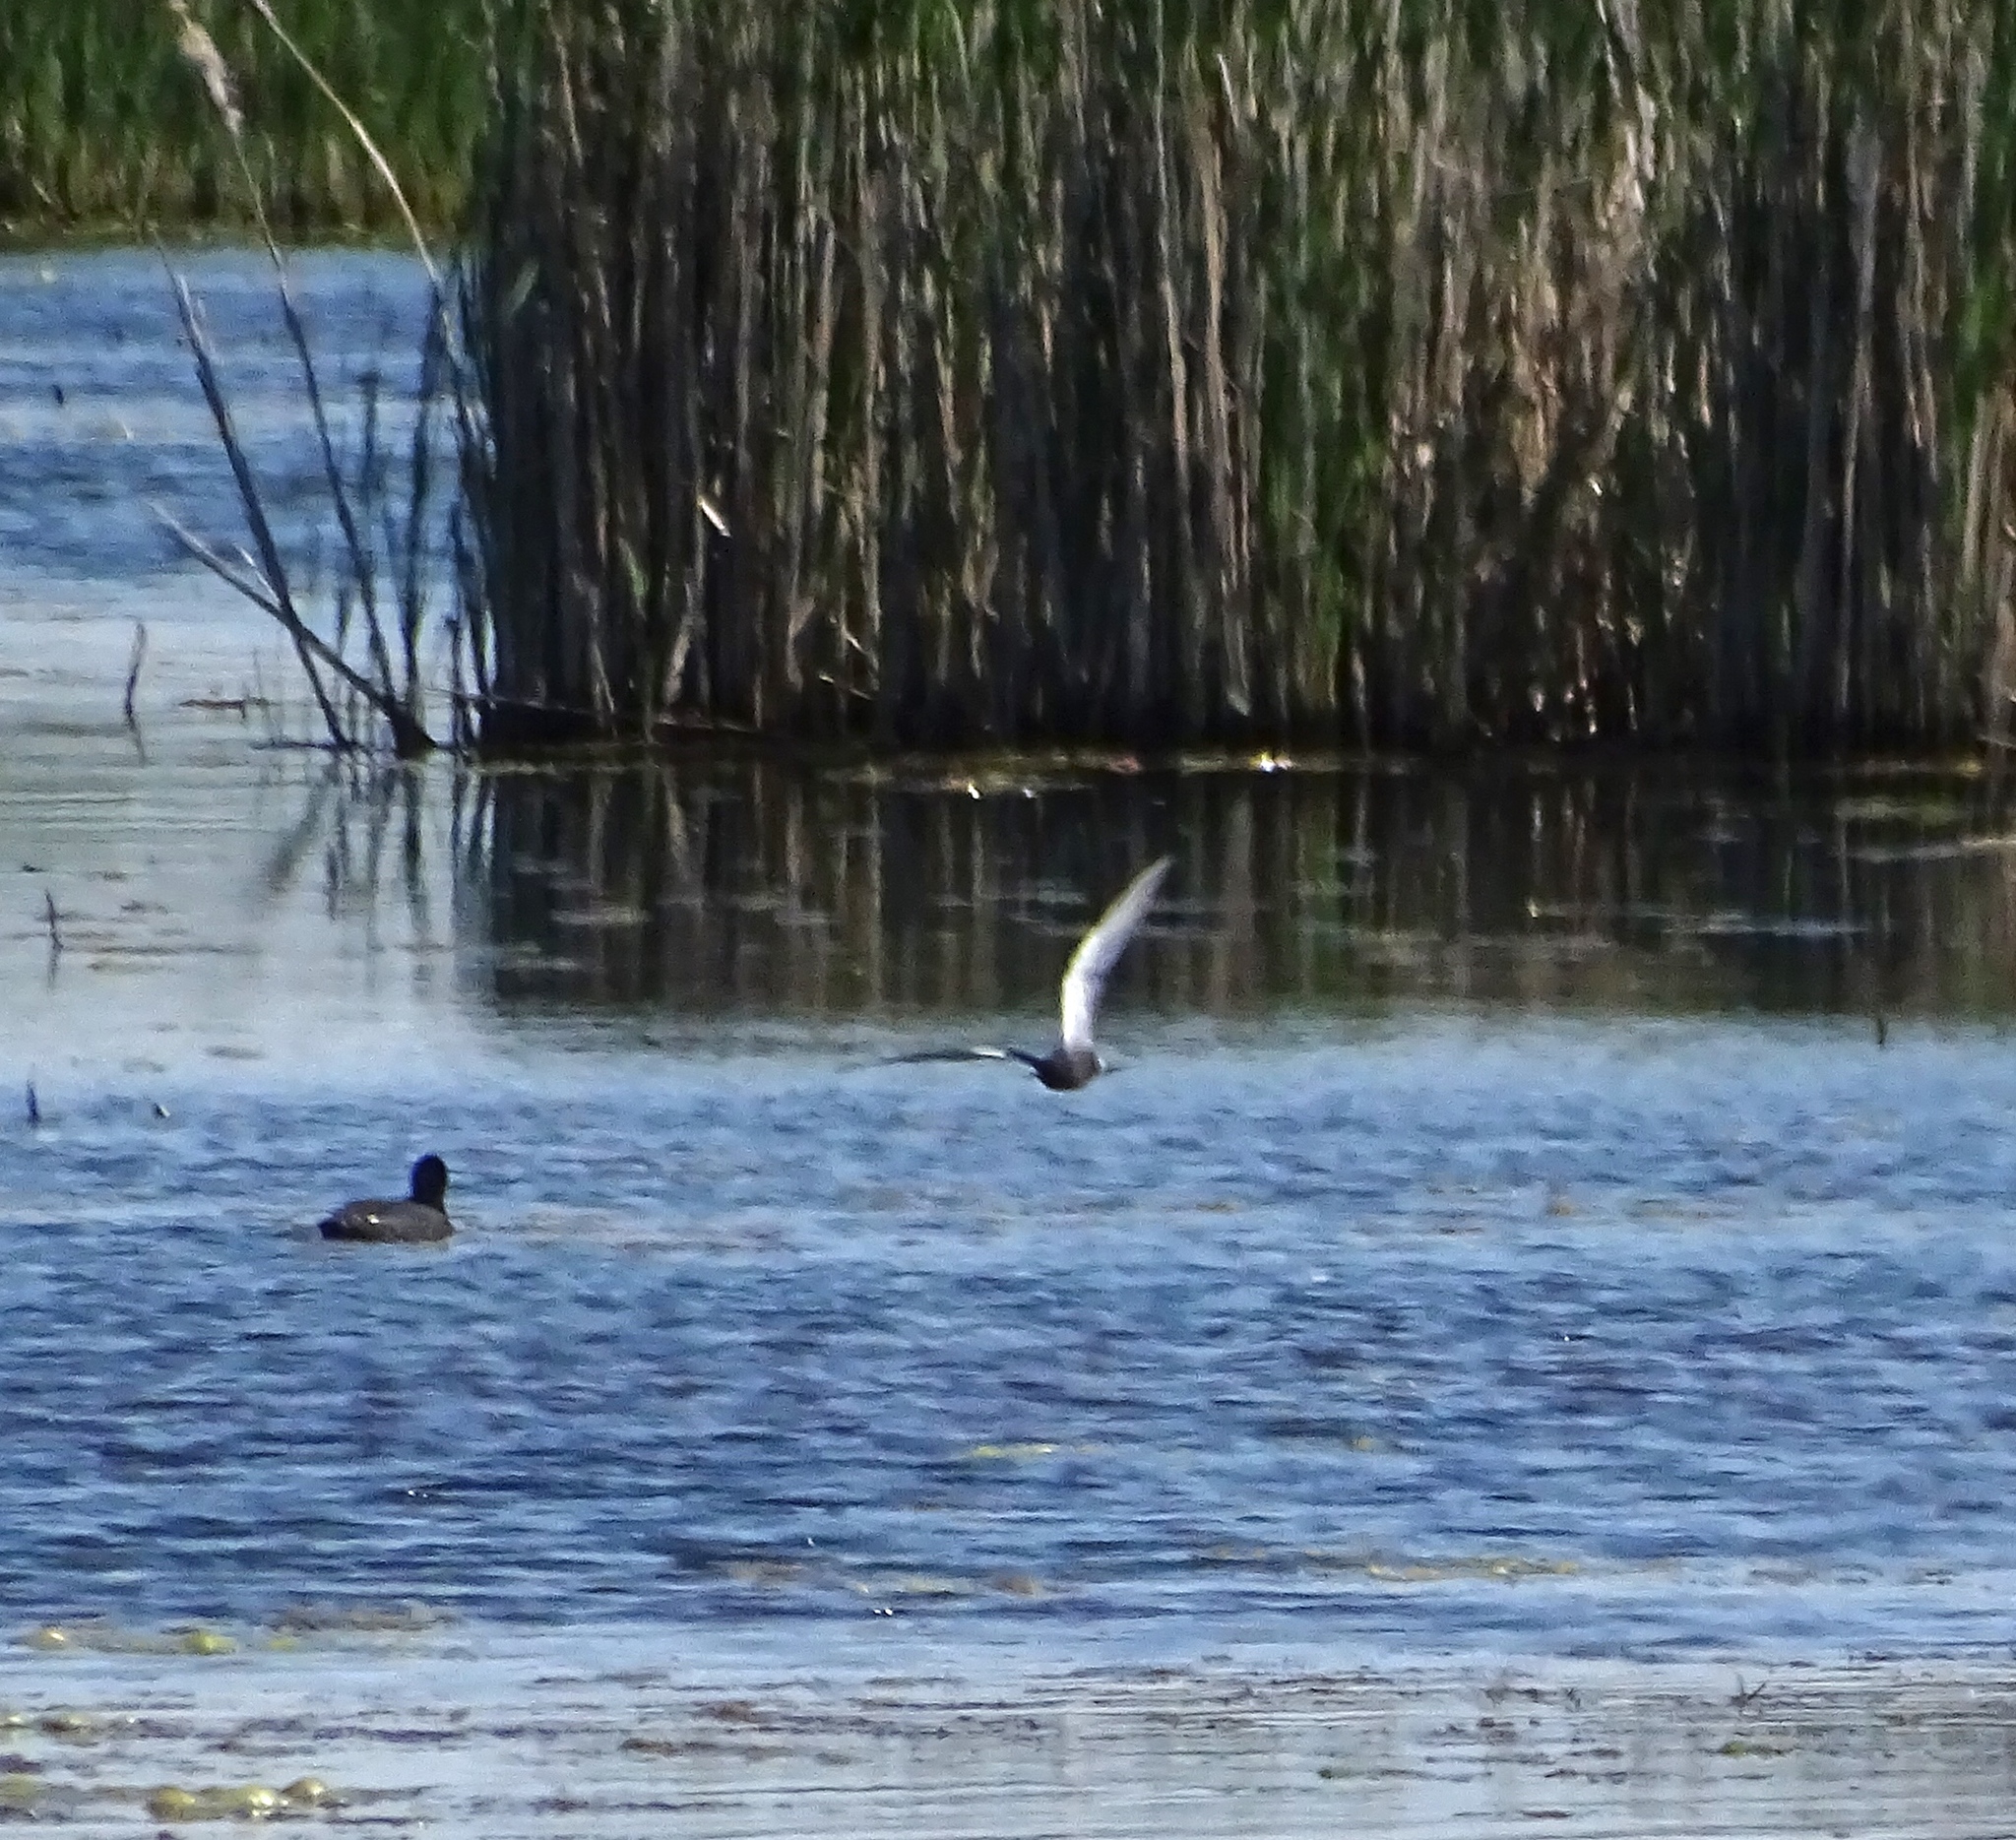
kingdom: Animalia
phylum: Chordata
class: Aves
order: Charadriiformes
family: Laridae
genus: Chlidonias
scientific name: Chlidonias niger
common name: Black tern
